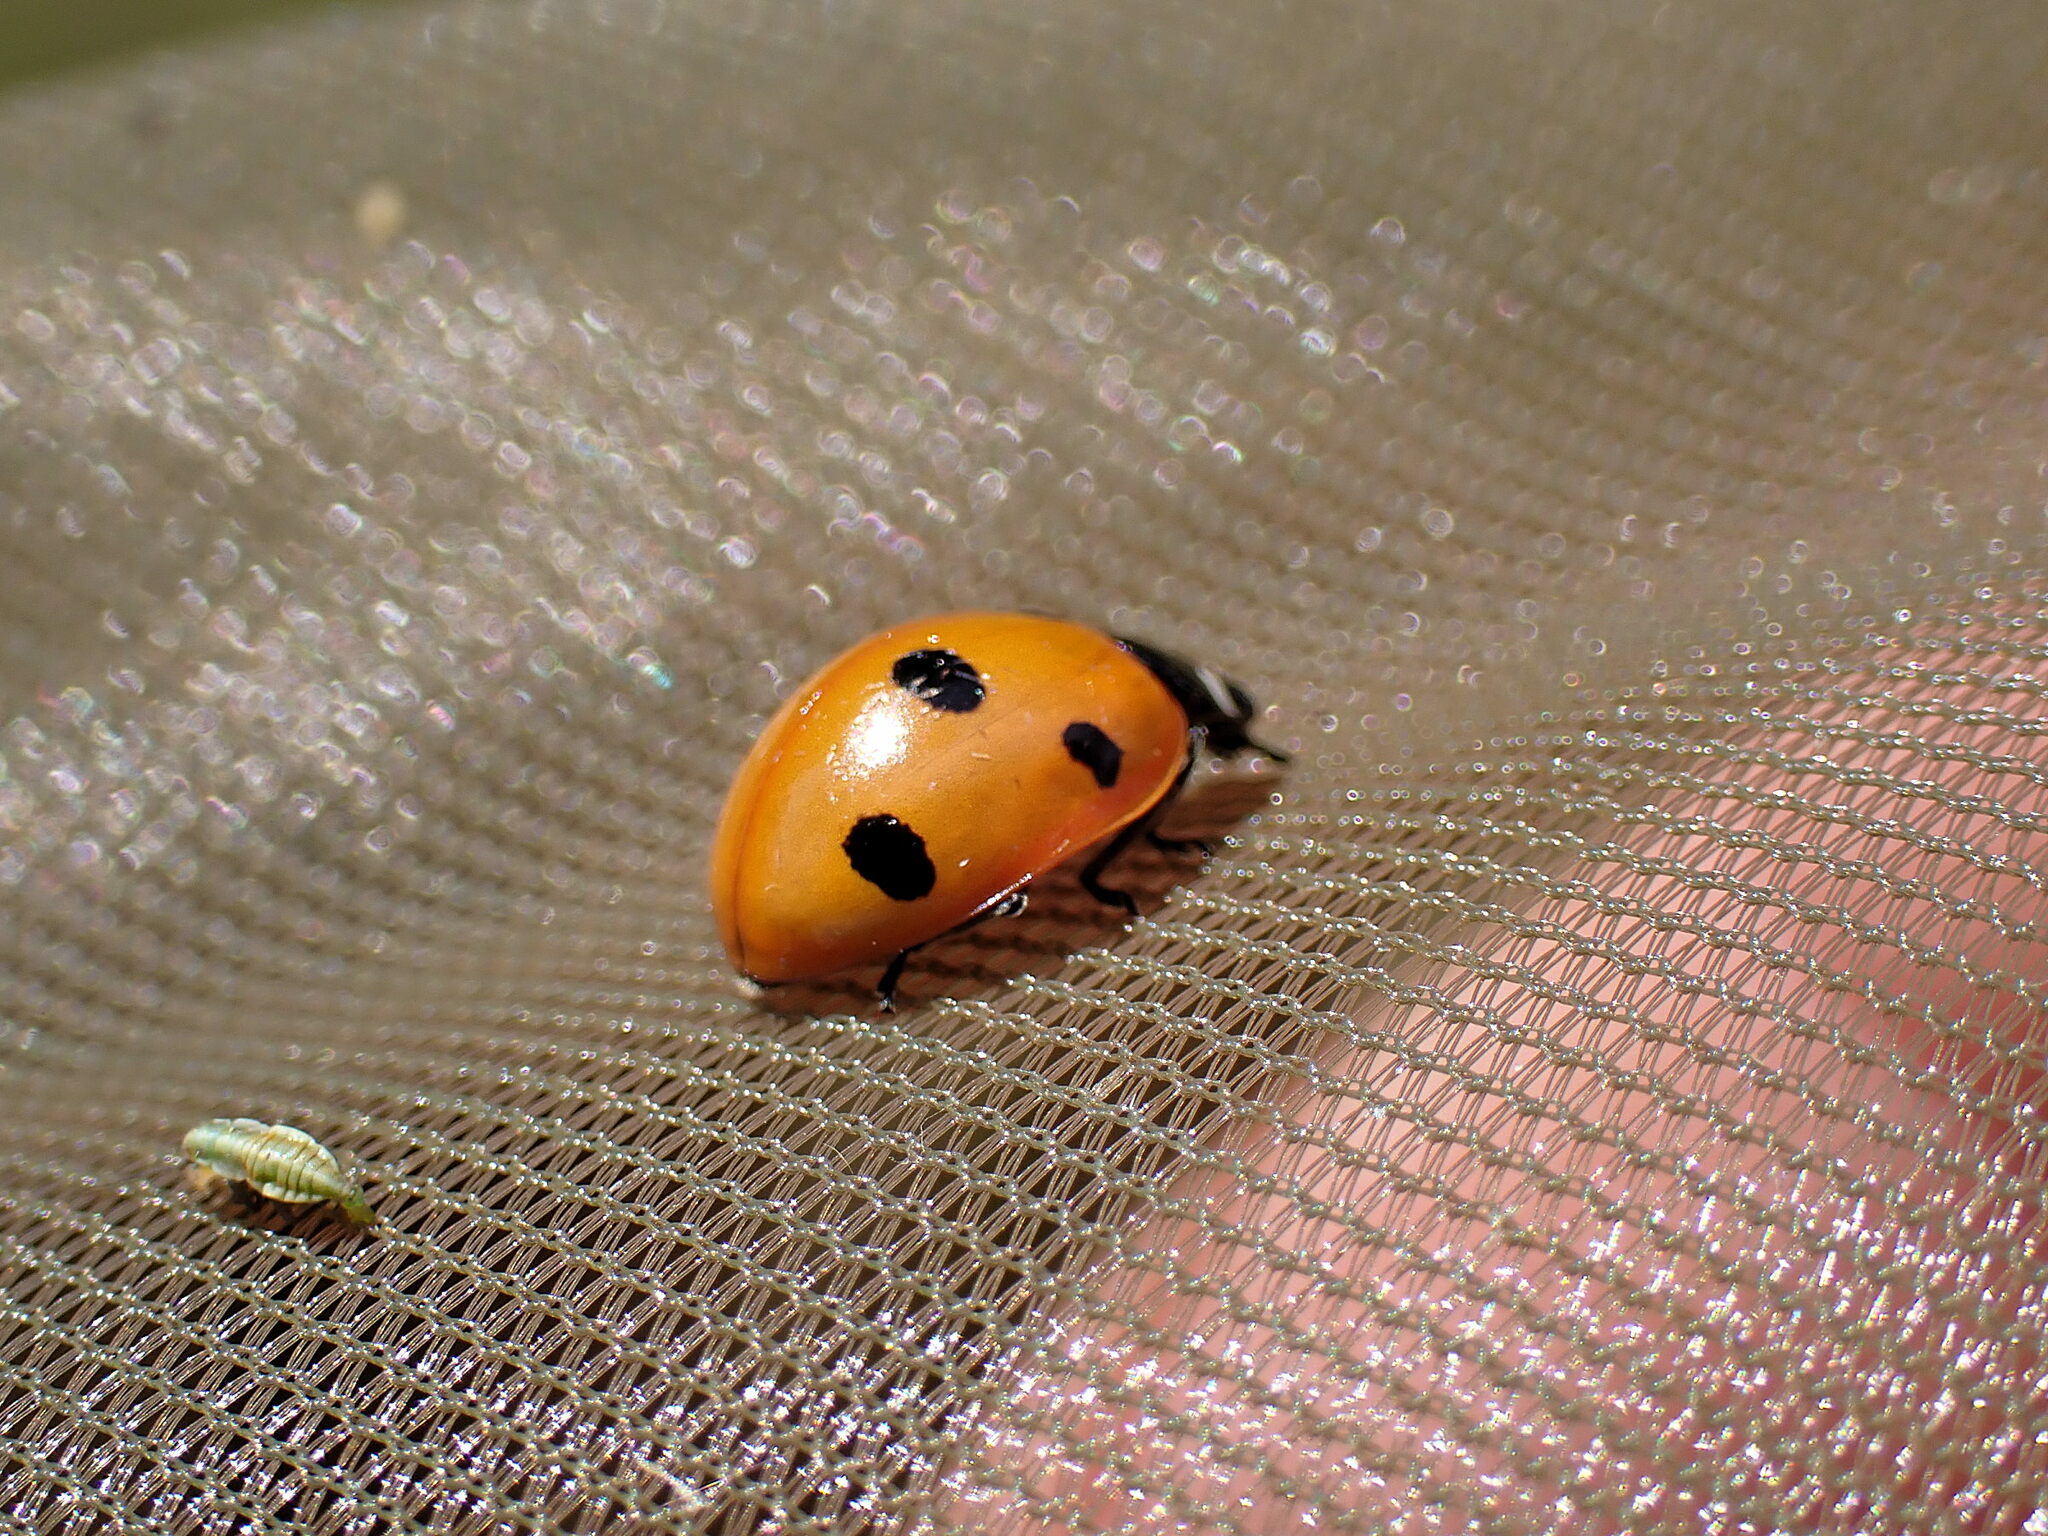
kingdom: Animalia
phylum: Arthropoda
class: Insecta
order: Coleoptera
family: Coccinellidae
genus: Coccinella
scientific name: Coccinella septempunctata
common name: Sevenspotted lady beetle
